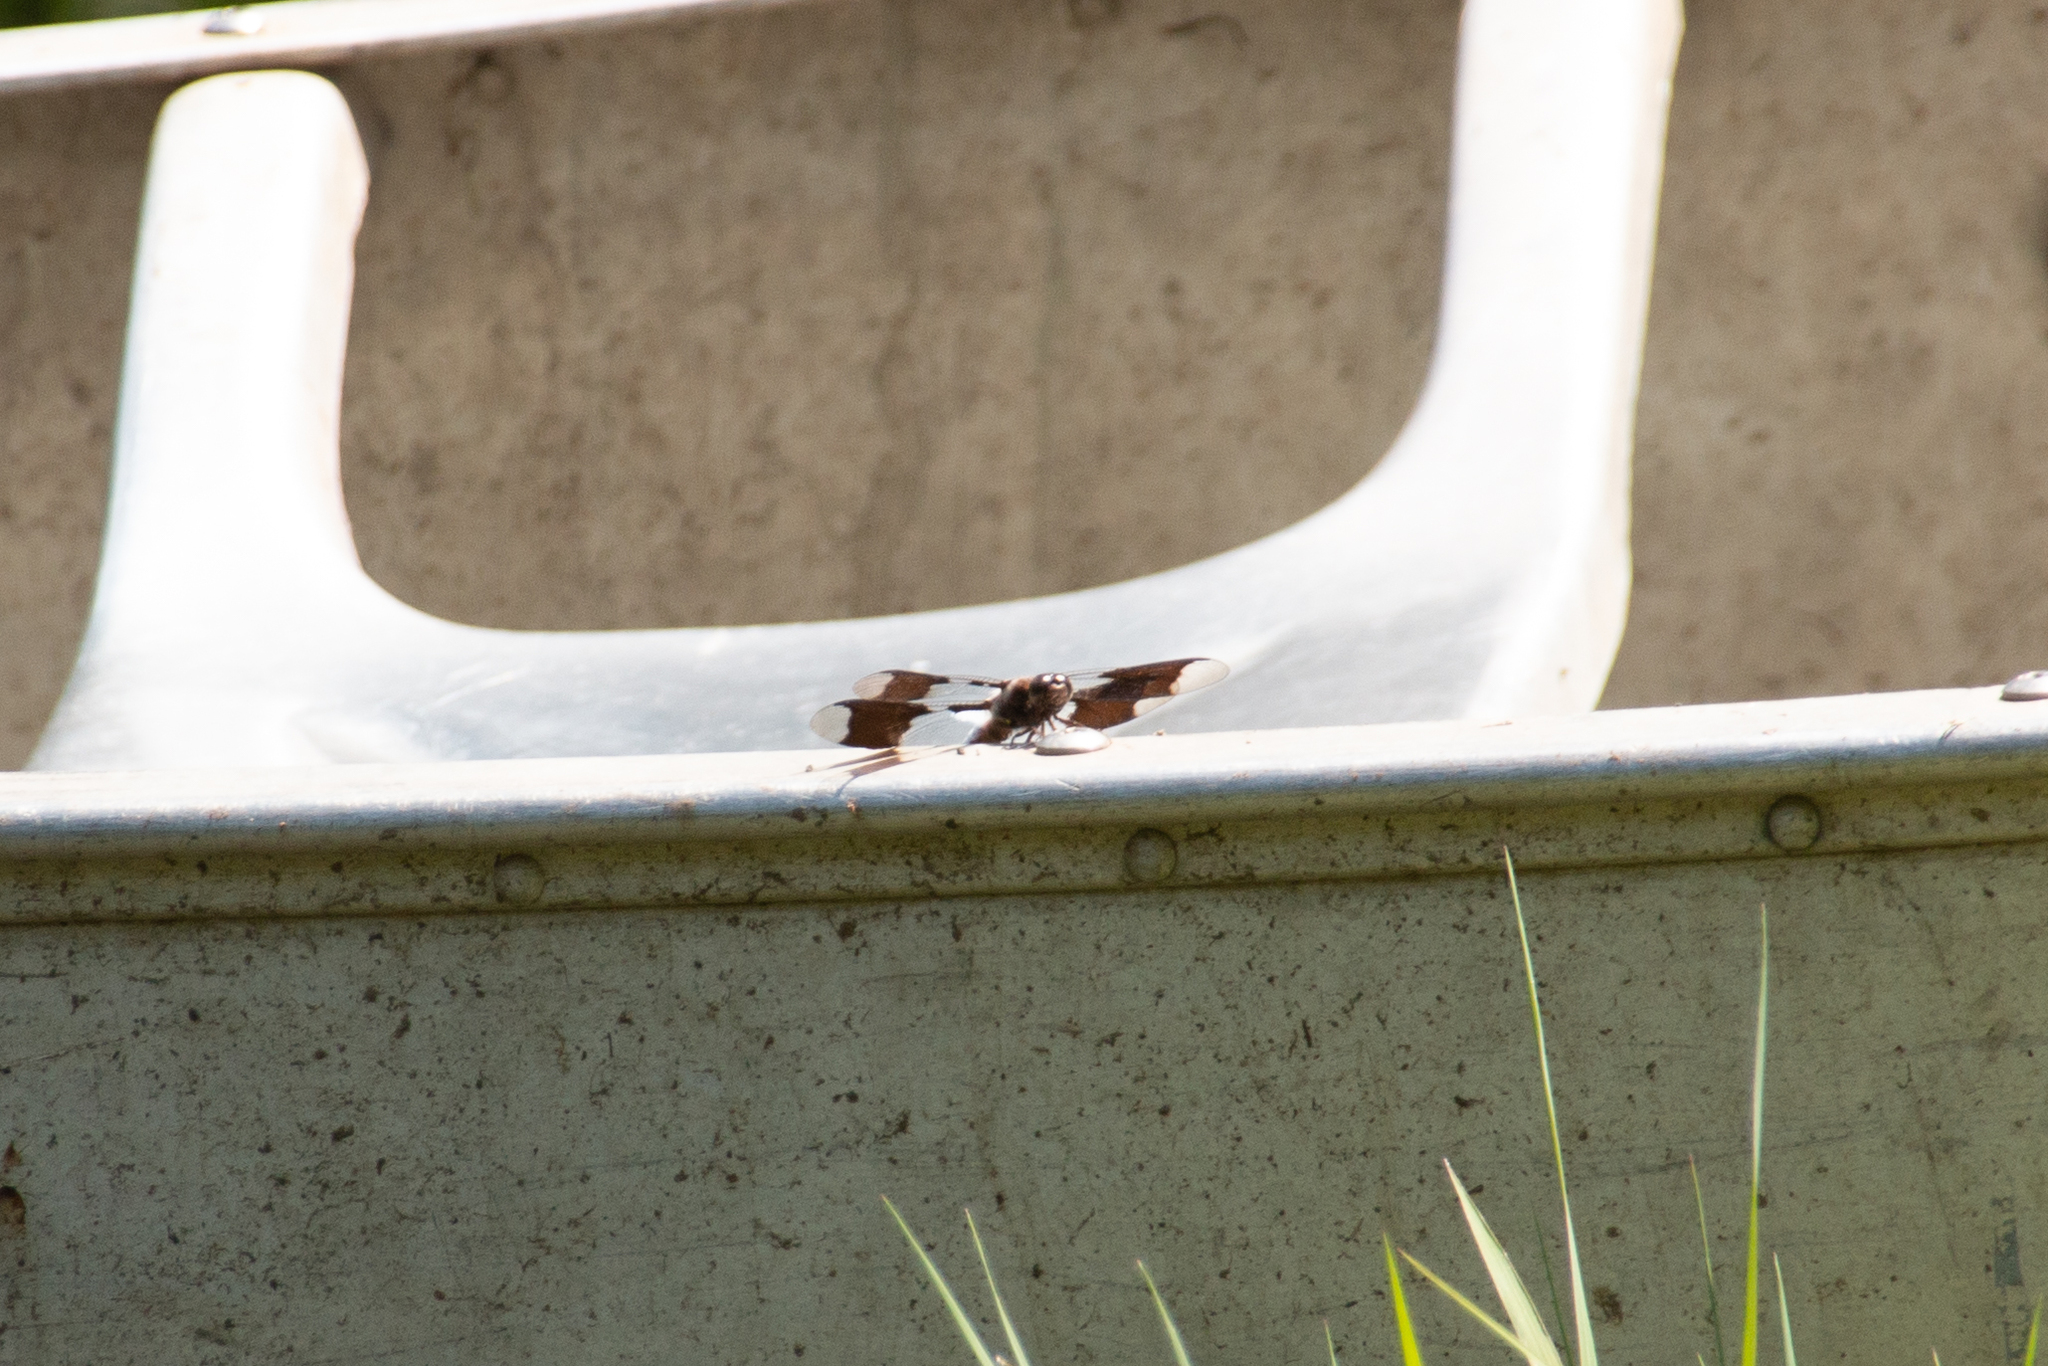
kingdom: Animalia
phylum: Arthropoda
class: Insecta
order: Odonata
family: Libellulidae
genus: Plathemis
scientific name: Plathemis lydia
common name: Common whitetail
